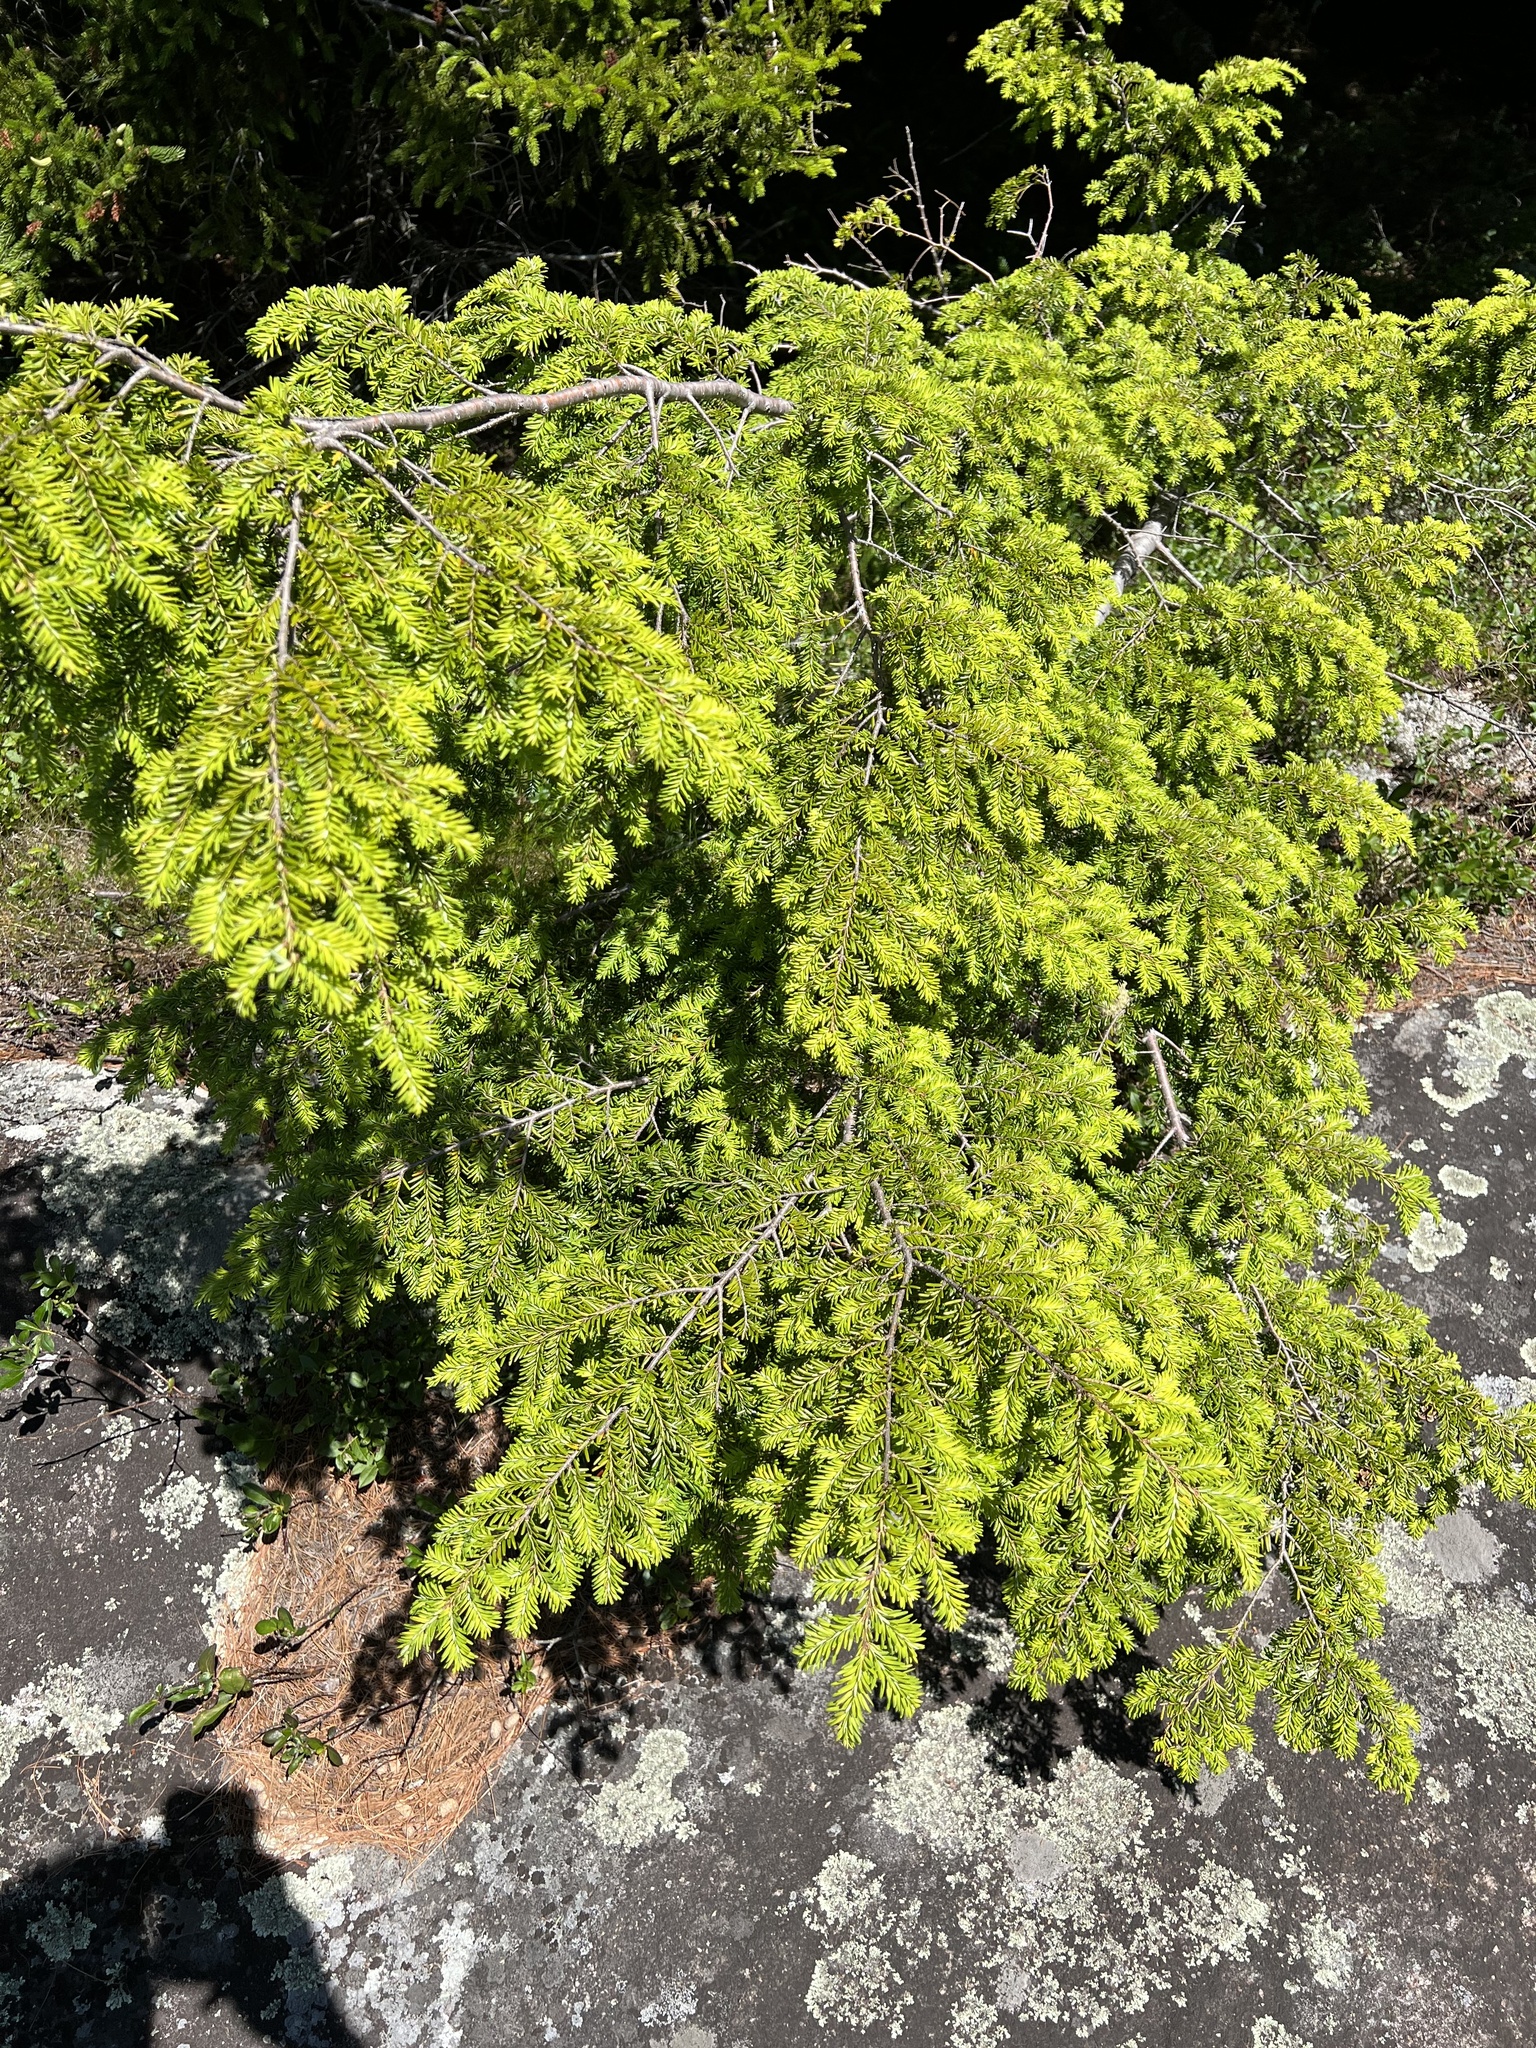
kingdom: Plantae
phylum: Tracheophyta
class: Pinopsida
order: Pinales
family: Pinaceae
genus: Tsuga
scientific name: Tsuga canadensis
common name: Eastern hemlock
